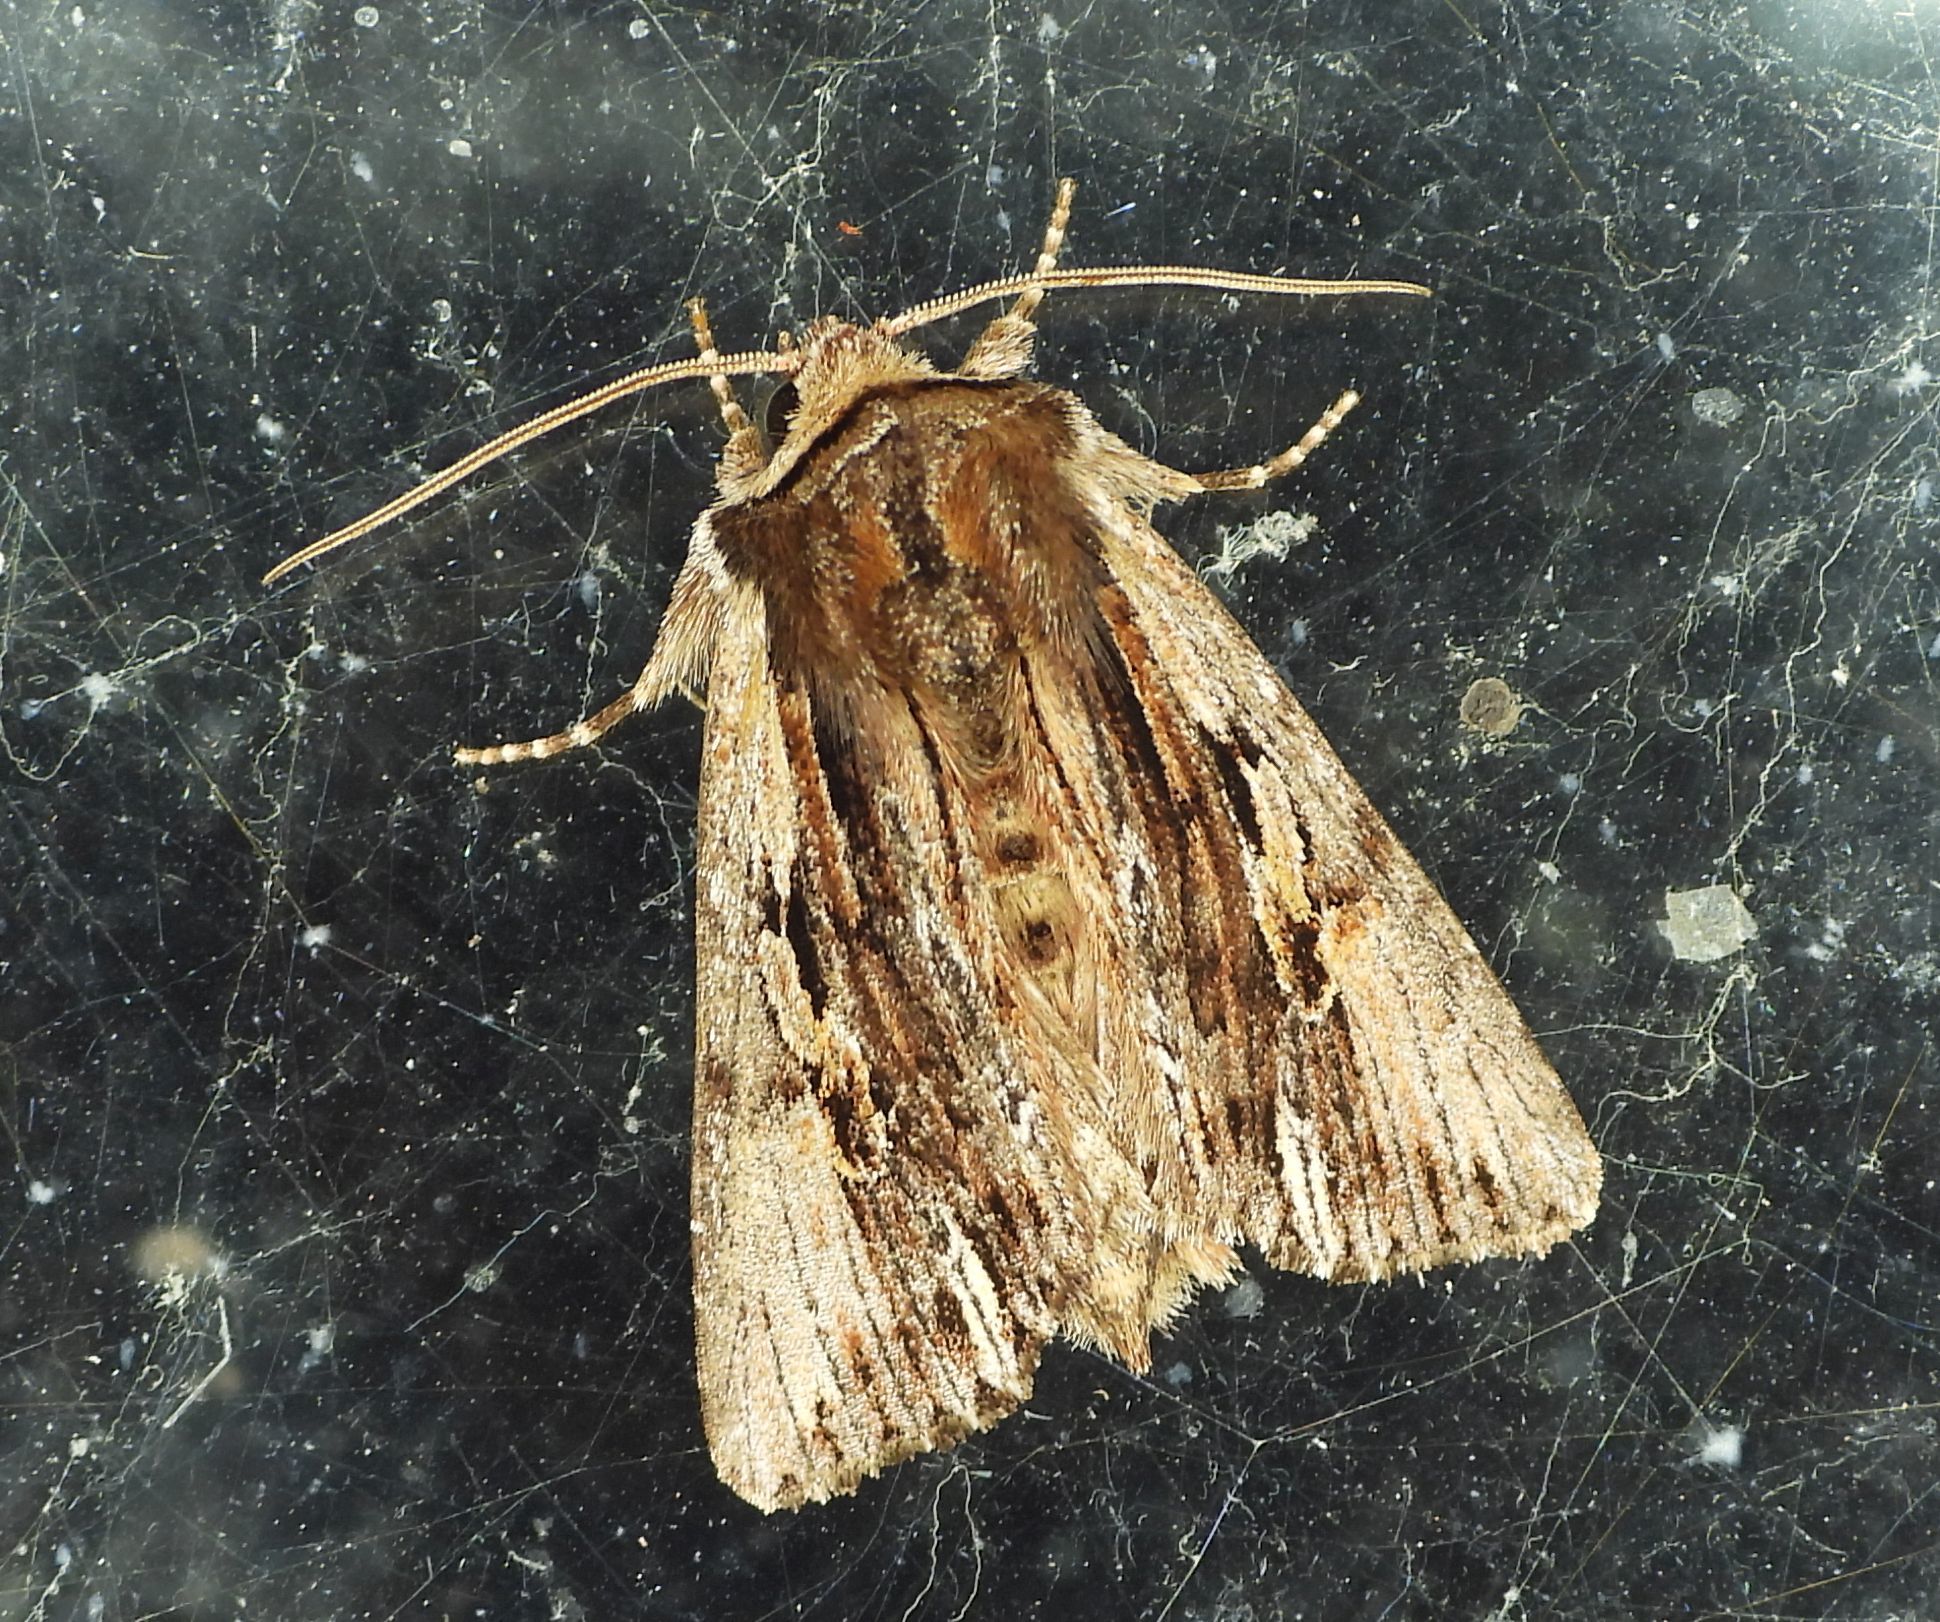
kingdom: Animalia
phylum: Arthropoda
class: Insecta
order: Lepidoptera
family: Noctuidae
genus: Achatia
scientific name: Achatia evicta
